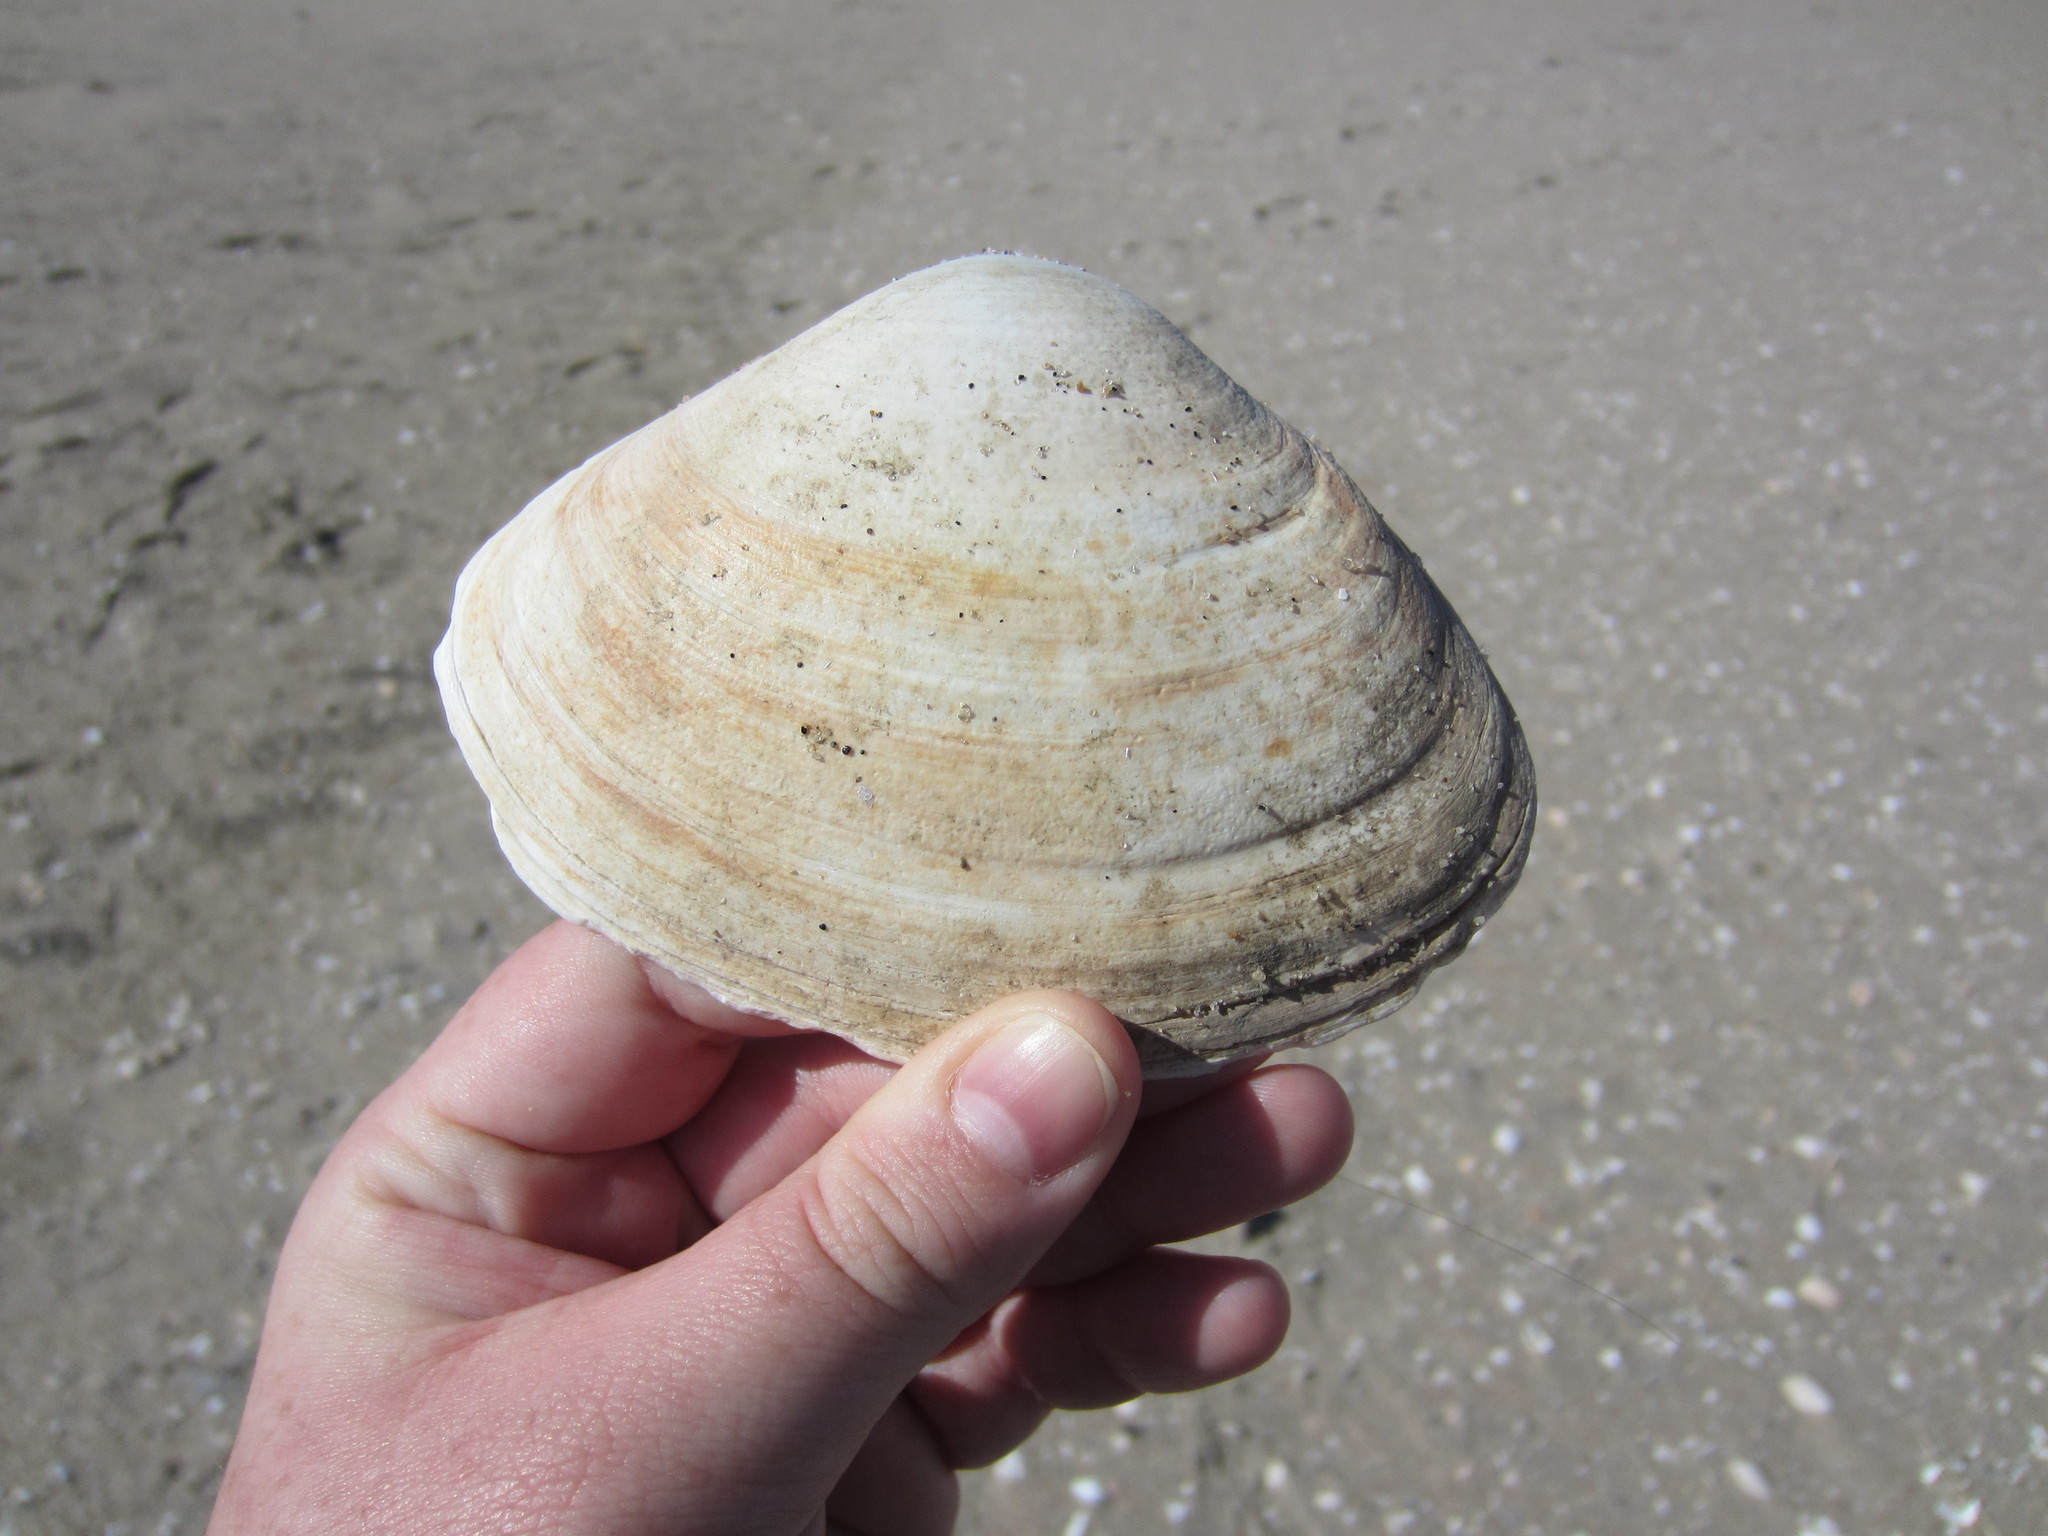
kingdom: Animalia
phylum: Mollusca
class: Bivalvia
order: Venerida
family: Mactridae
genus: Spisula
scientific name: Spisula solidissima
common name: Atlantic surf clam
